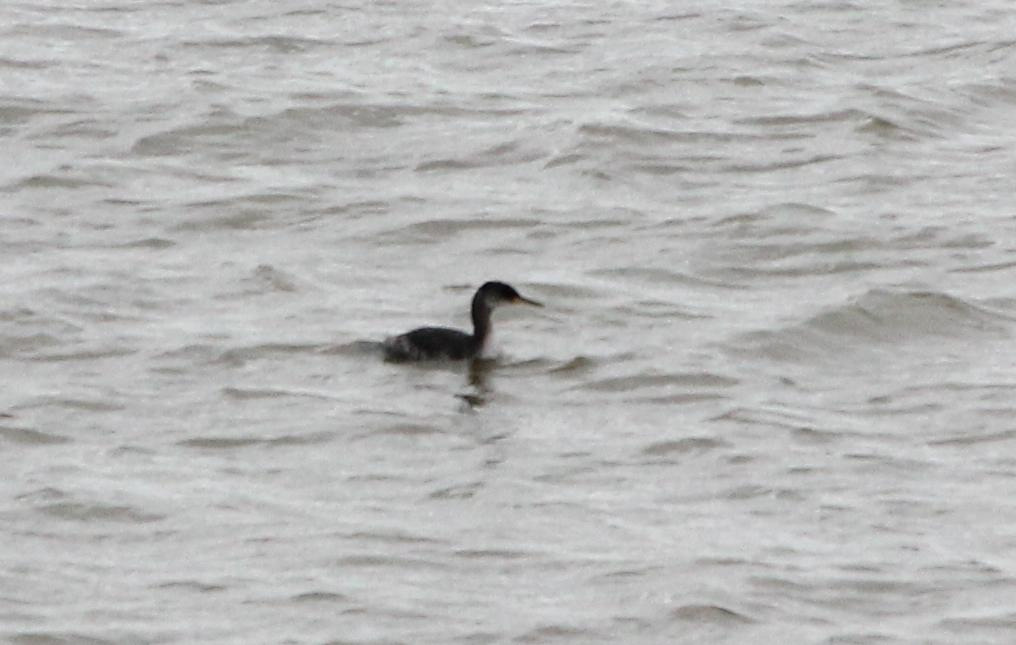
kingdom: Animalia
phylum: Chordata
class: Aves
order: Podicipediformes
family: Podicipedidae
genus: Podiceps
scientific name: Podiceps grisegena
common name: Red-necked grebe
